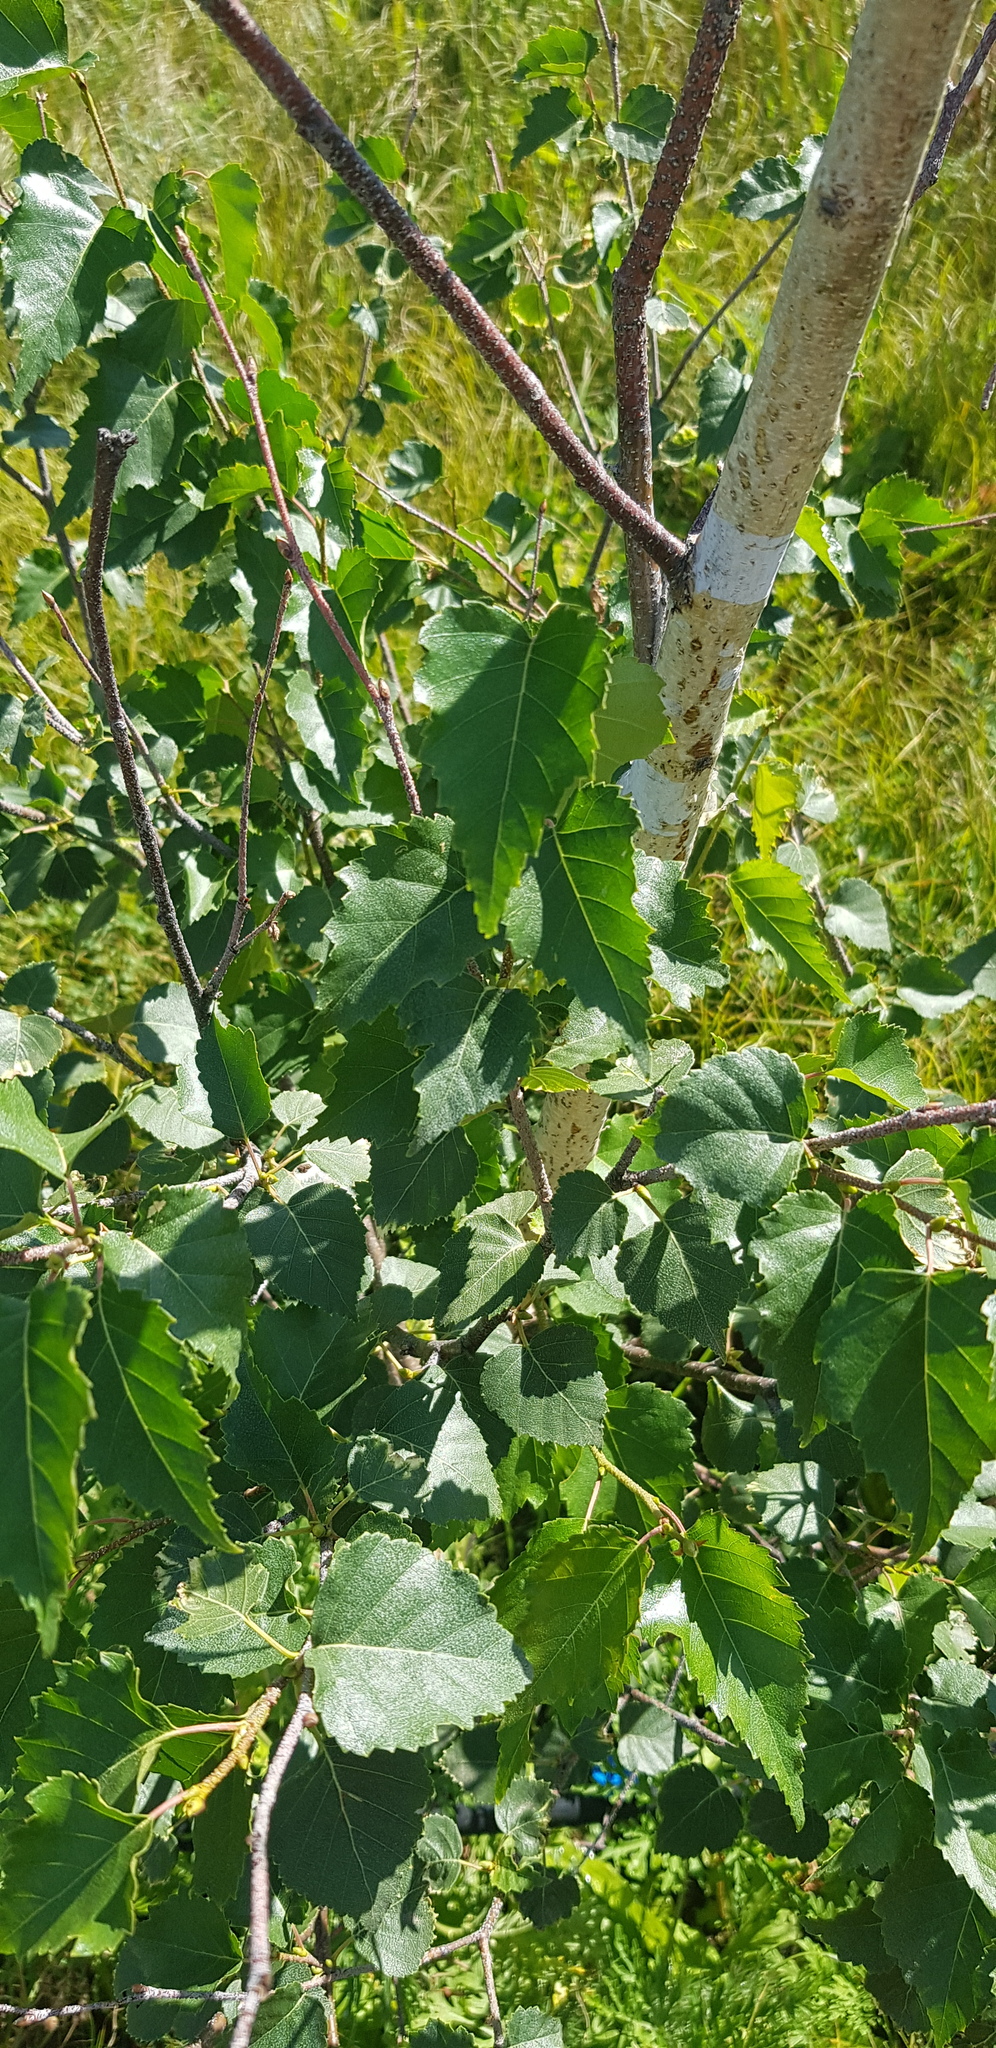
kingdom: Plantae
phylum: Tracheophyta
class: Magnoliopsida
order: Fagales
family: Betulaceae
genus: Betula
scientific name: Betula pendula
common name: Silver birch
